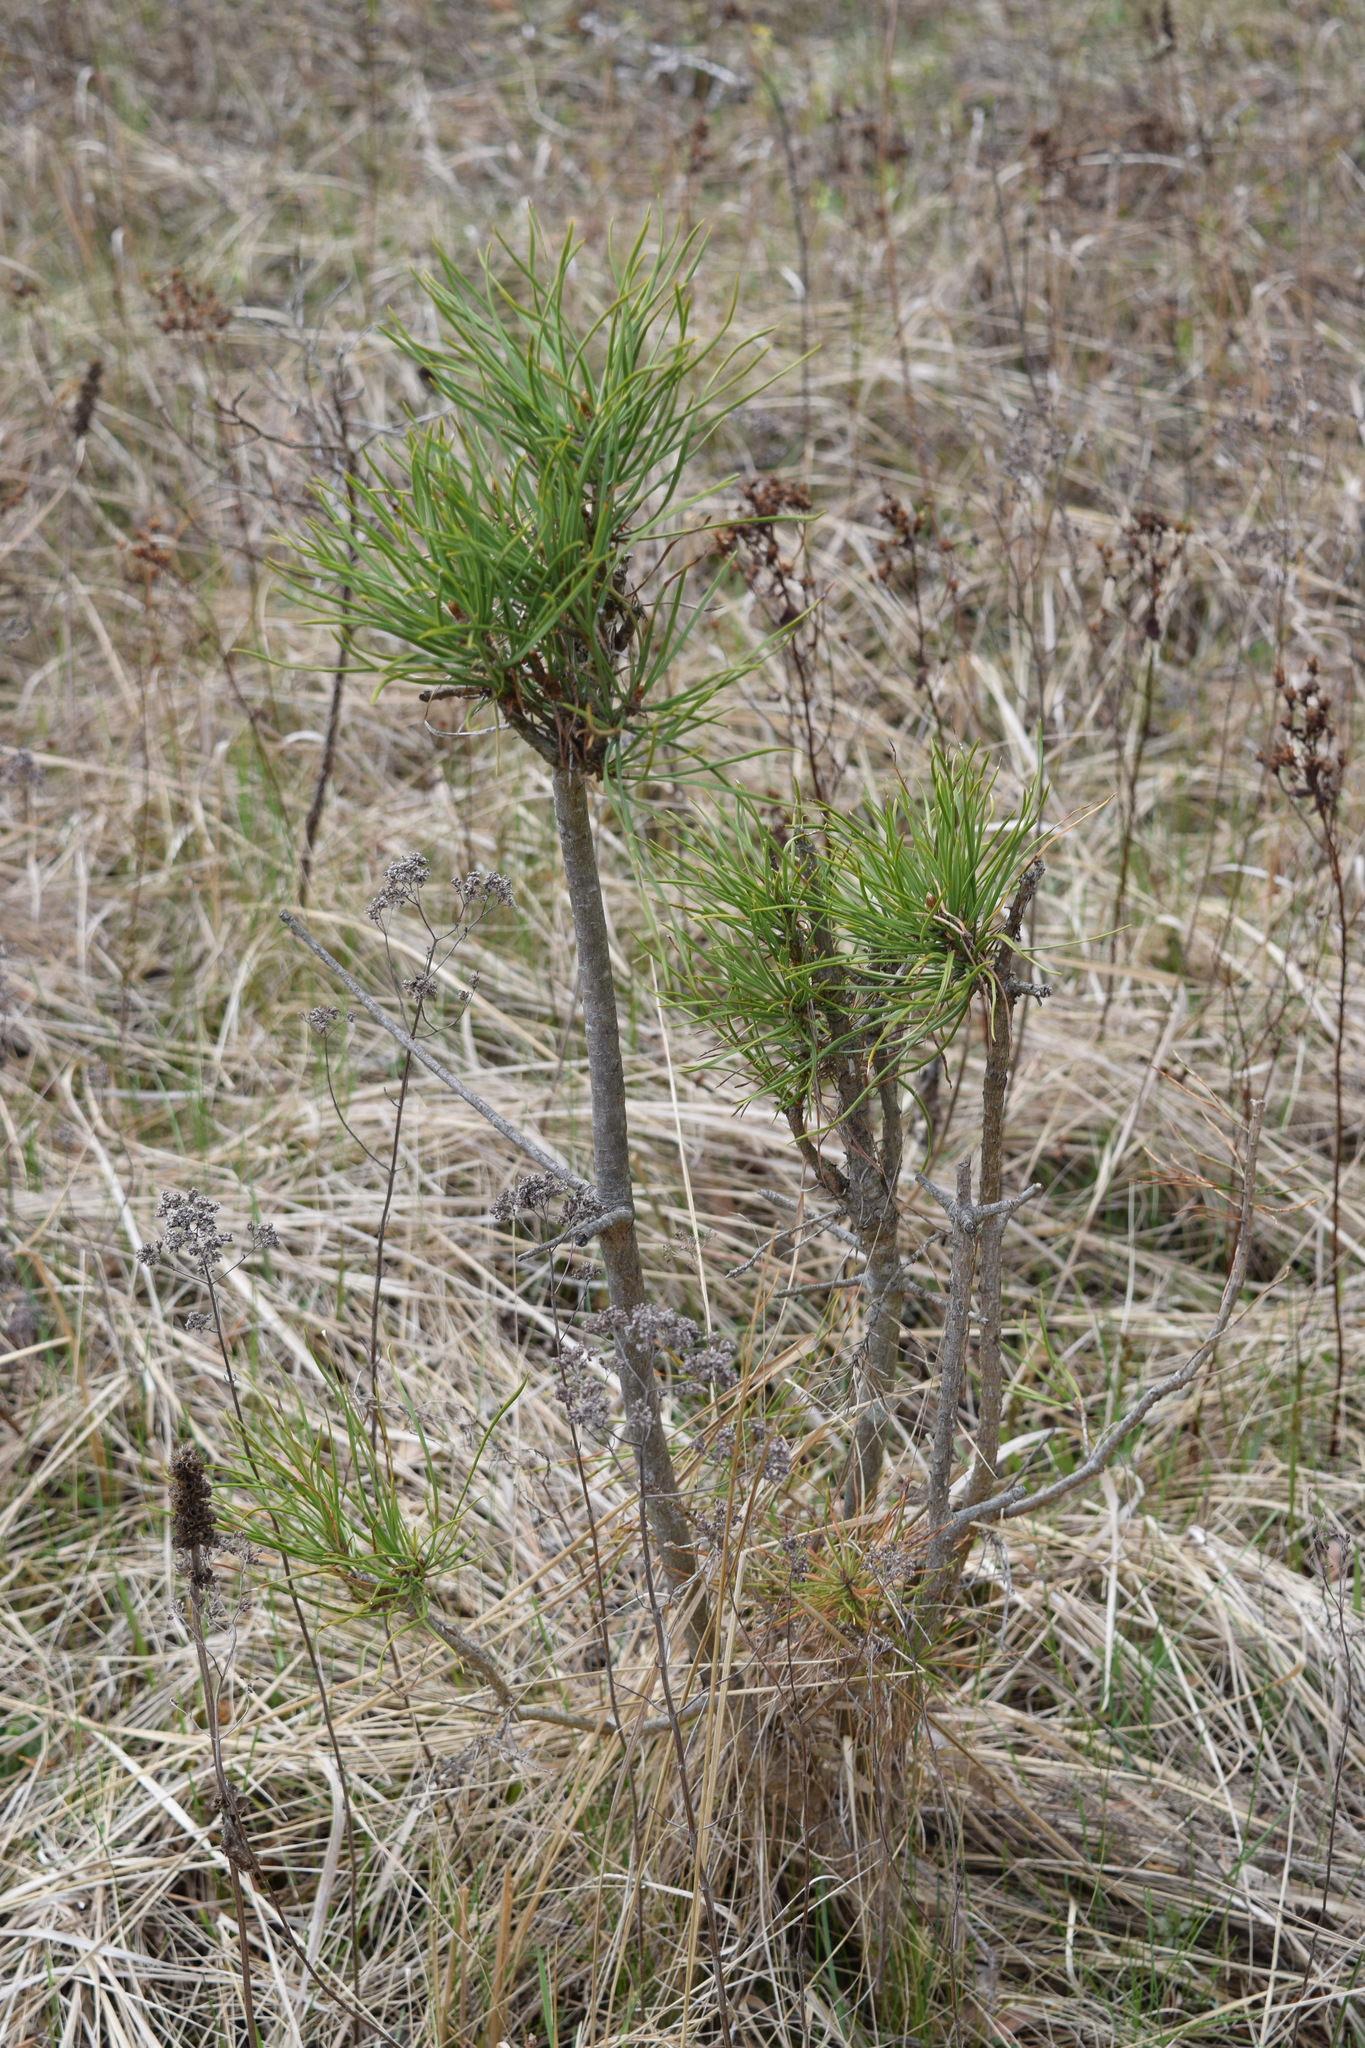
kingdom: Plantae
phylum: Tracheophyta
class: Pinopsida
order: Pinales
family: Pinaceae
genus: Pinus
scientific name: Pinus sylvestris
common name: Scots pine
